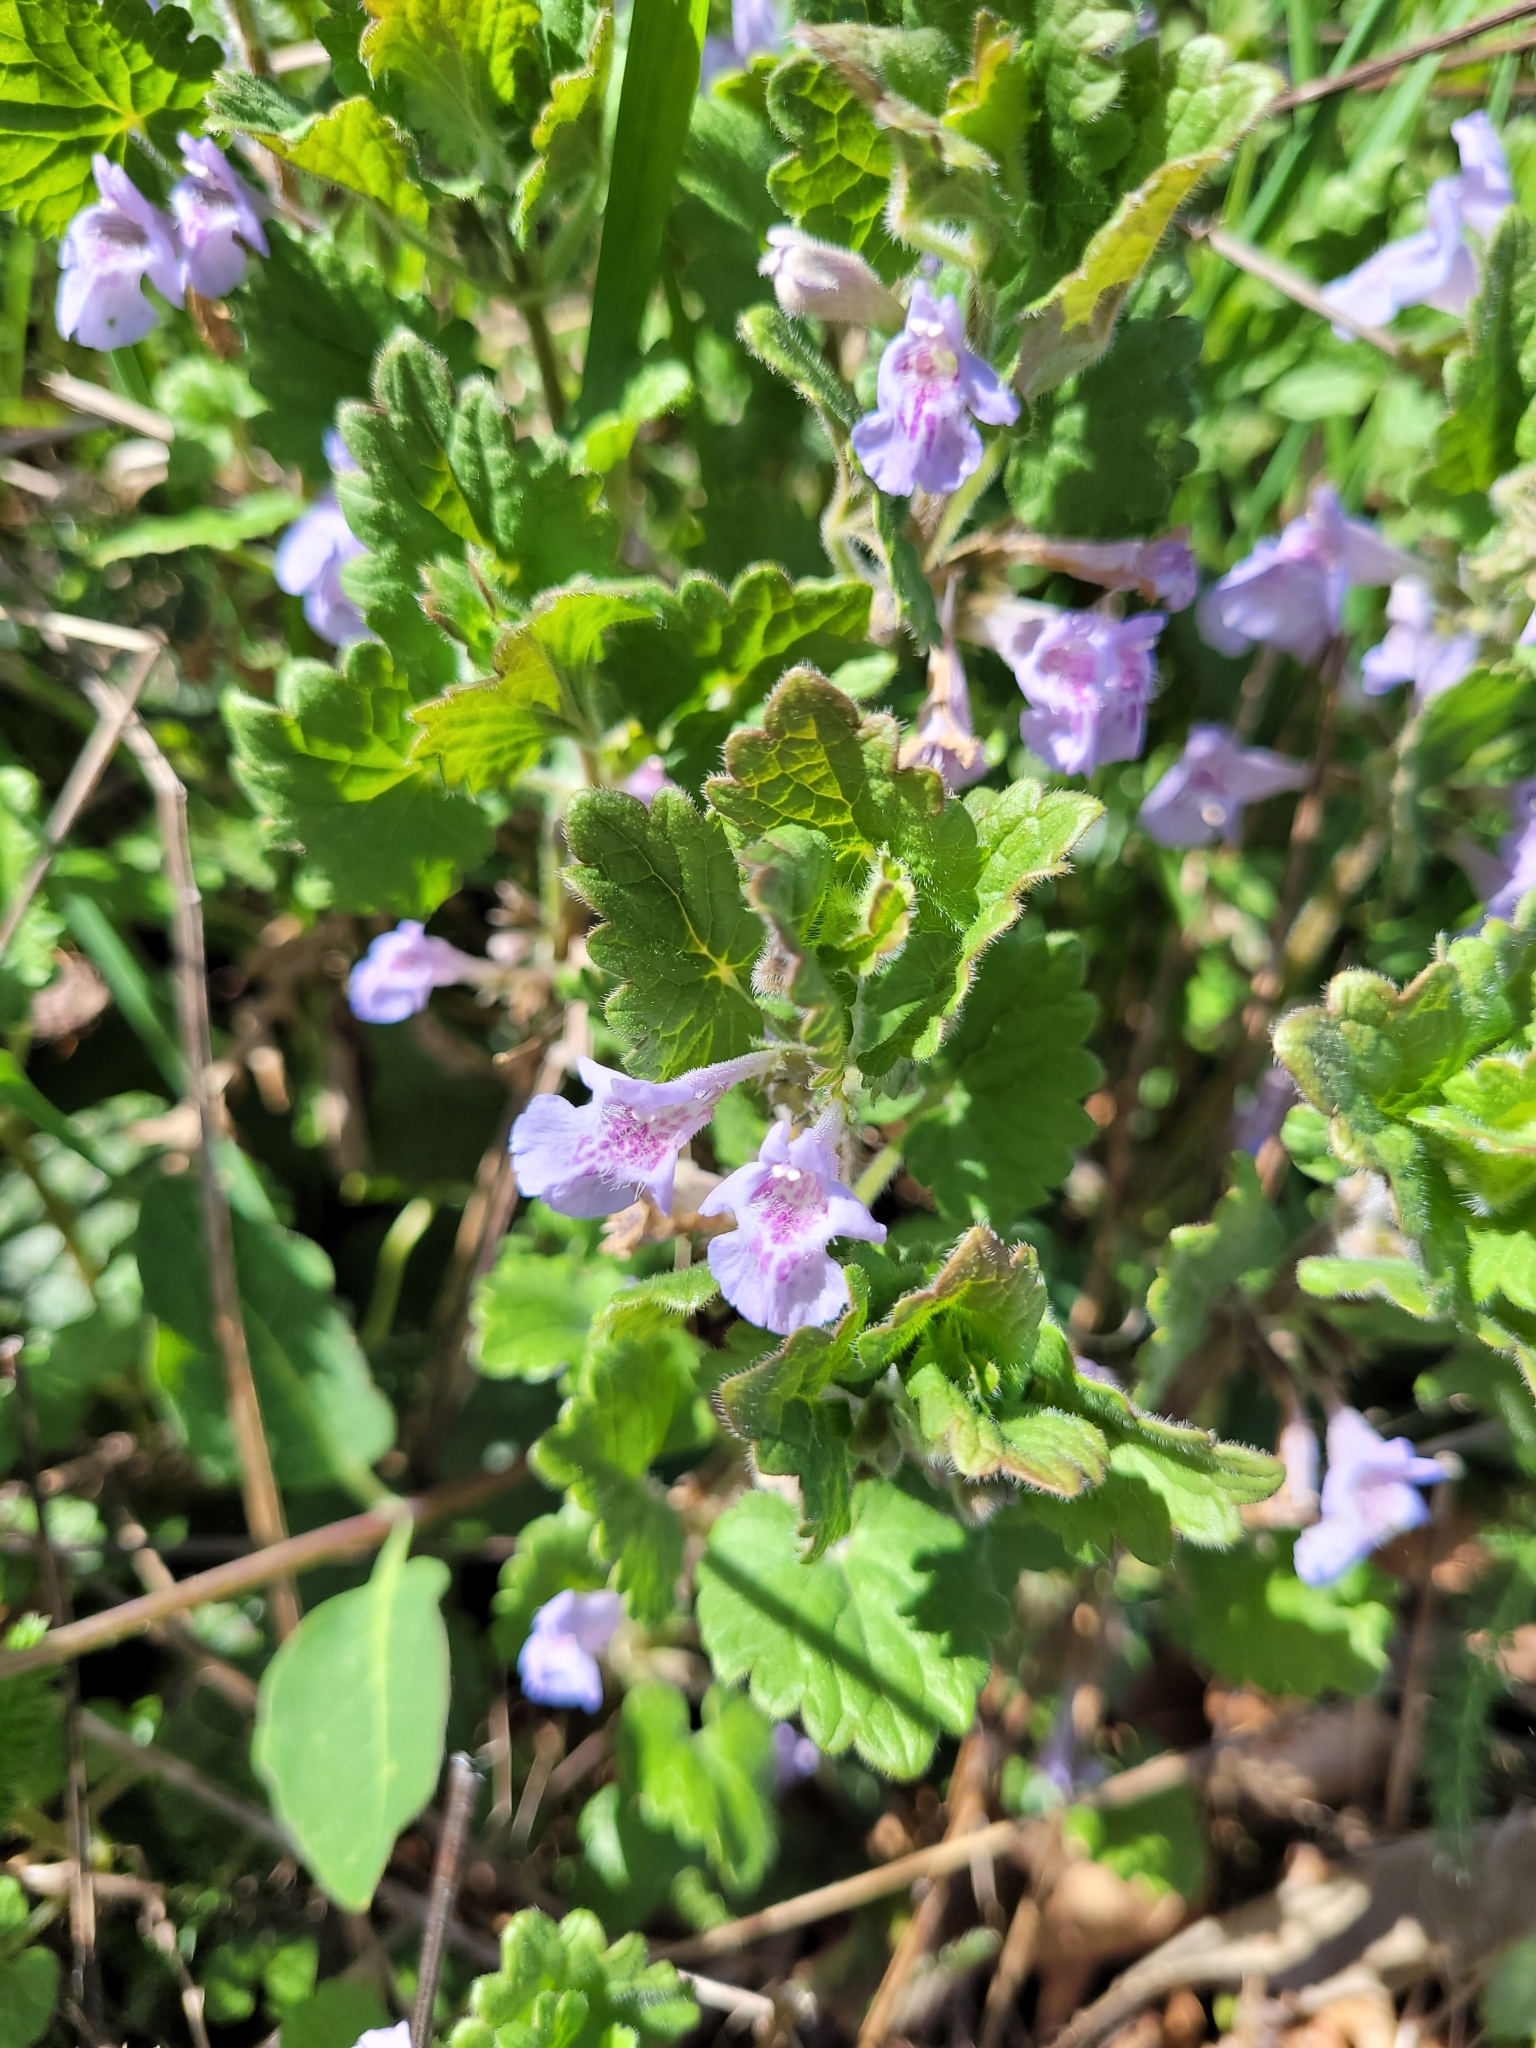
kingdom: Plantae
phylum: Tracheophyta
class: Magnoliopsida
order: Lamiales
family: Lamiaceae
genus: Glechoma
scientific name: Glechoma hederacea
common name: Ground ivy
